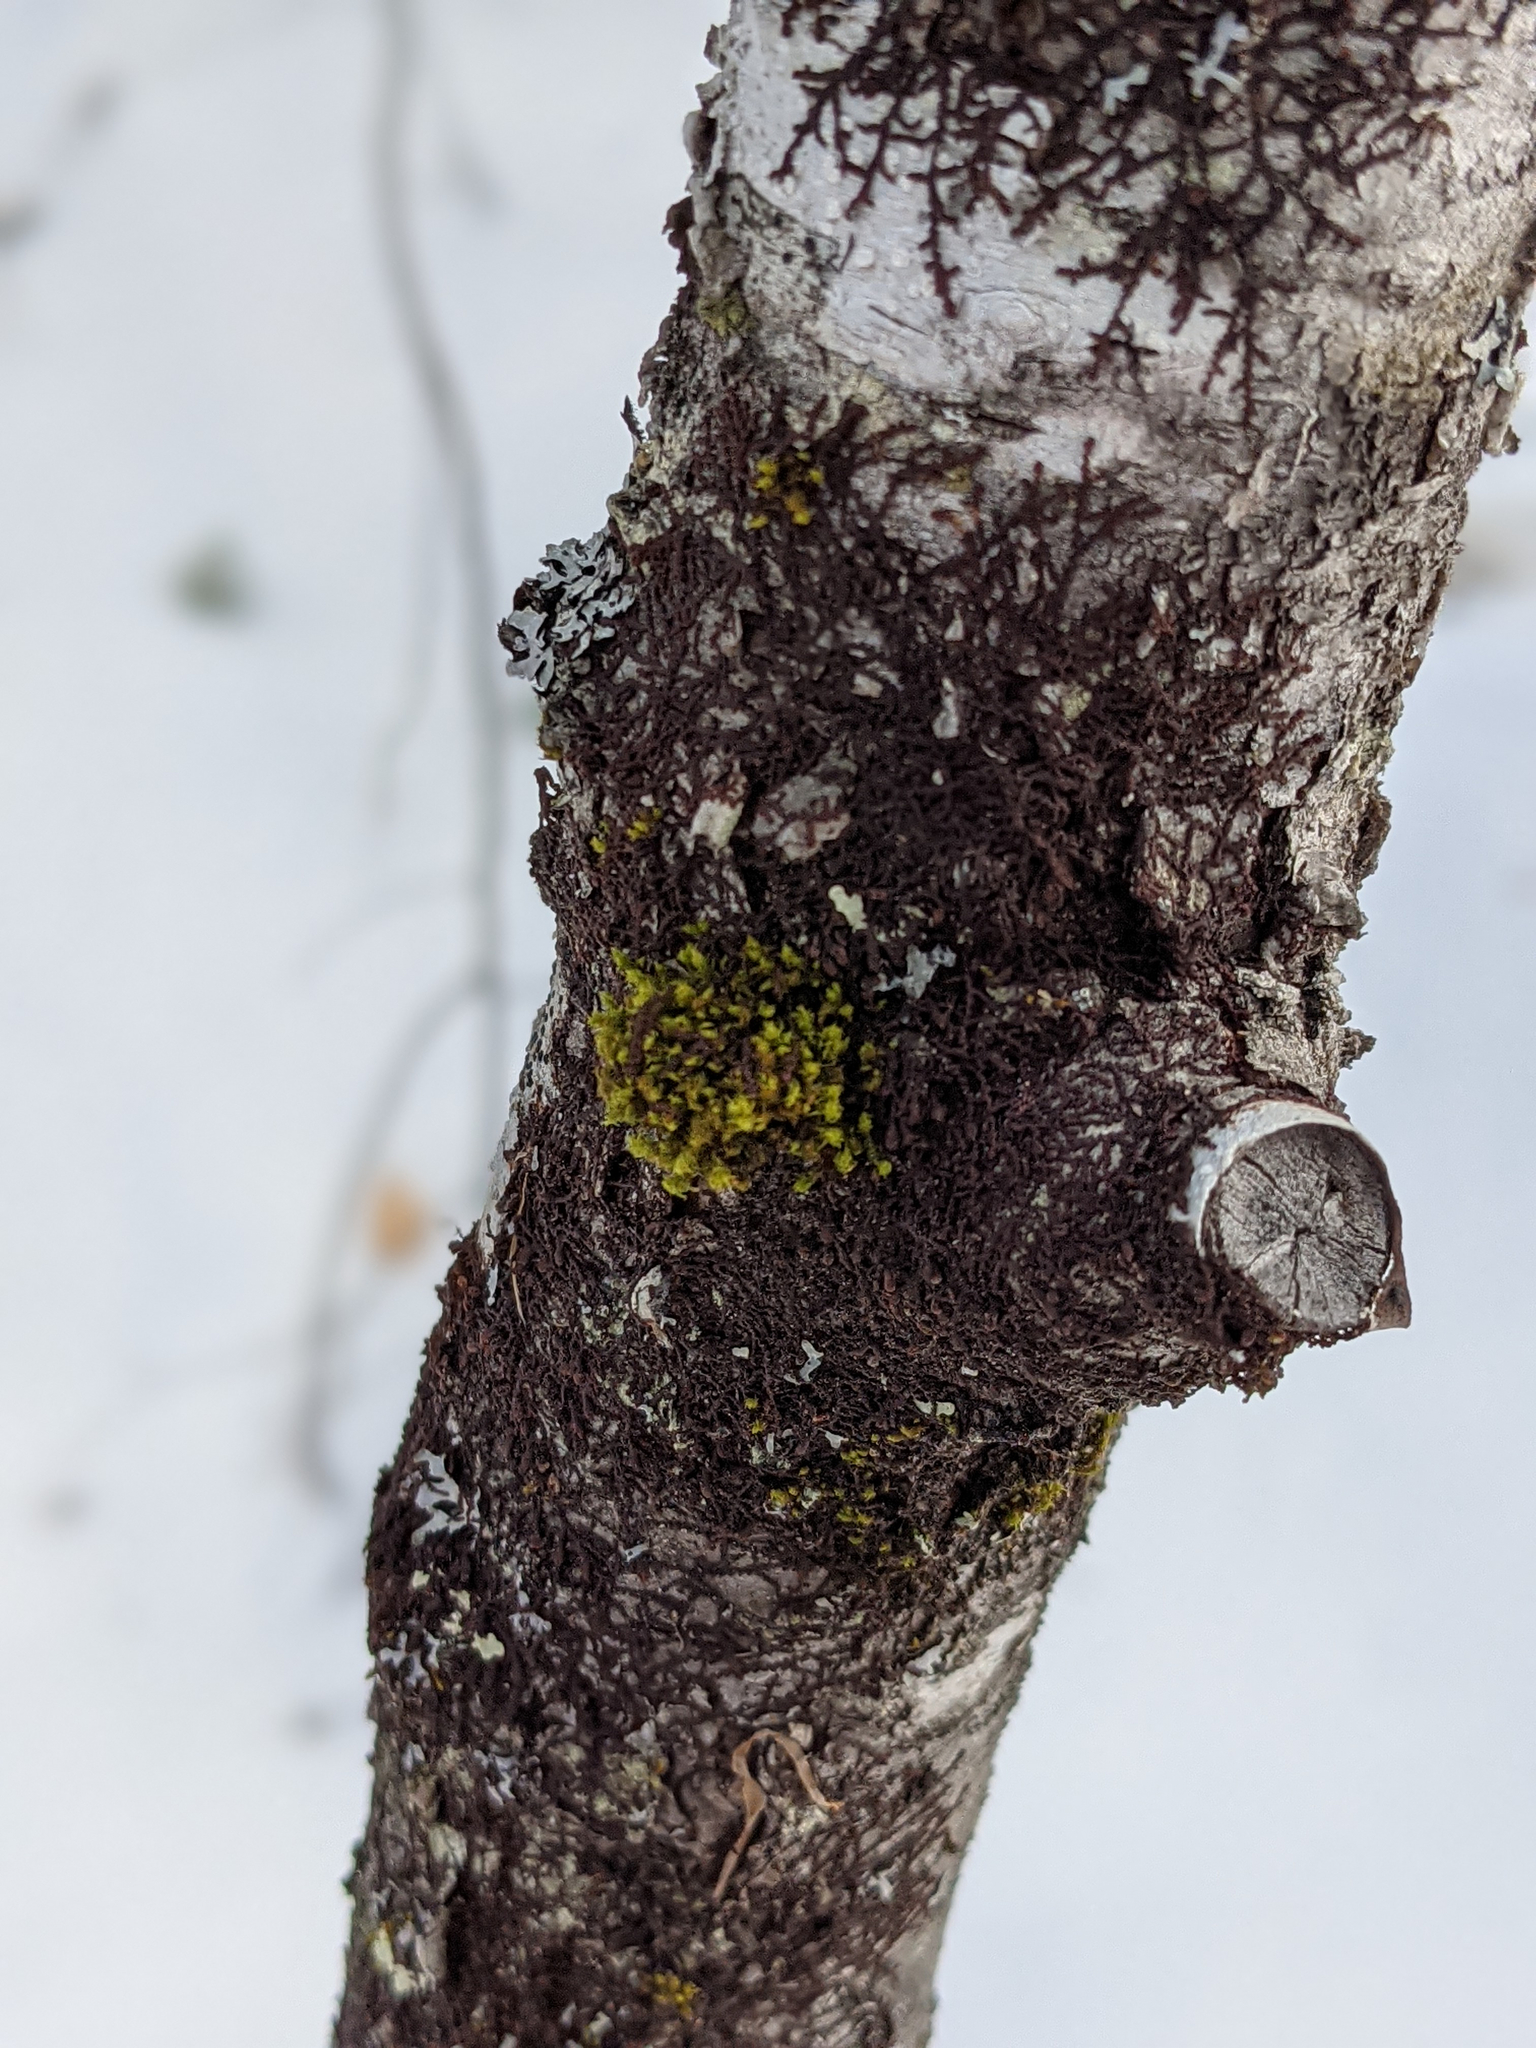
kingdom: Plantae
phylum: Bryophyta
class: Bryopsida
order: Orthotrichales
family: Orthotrichaceae
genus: Ulota
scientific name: Ulota crispa
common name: Crisped pincushion moss
